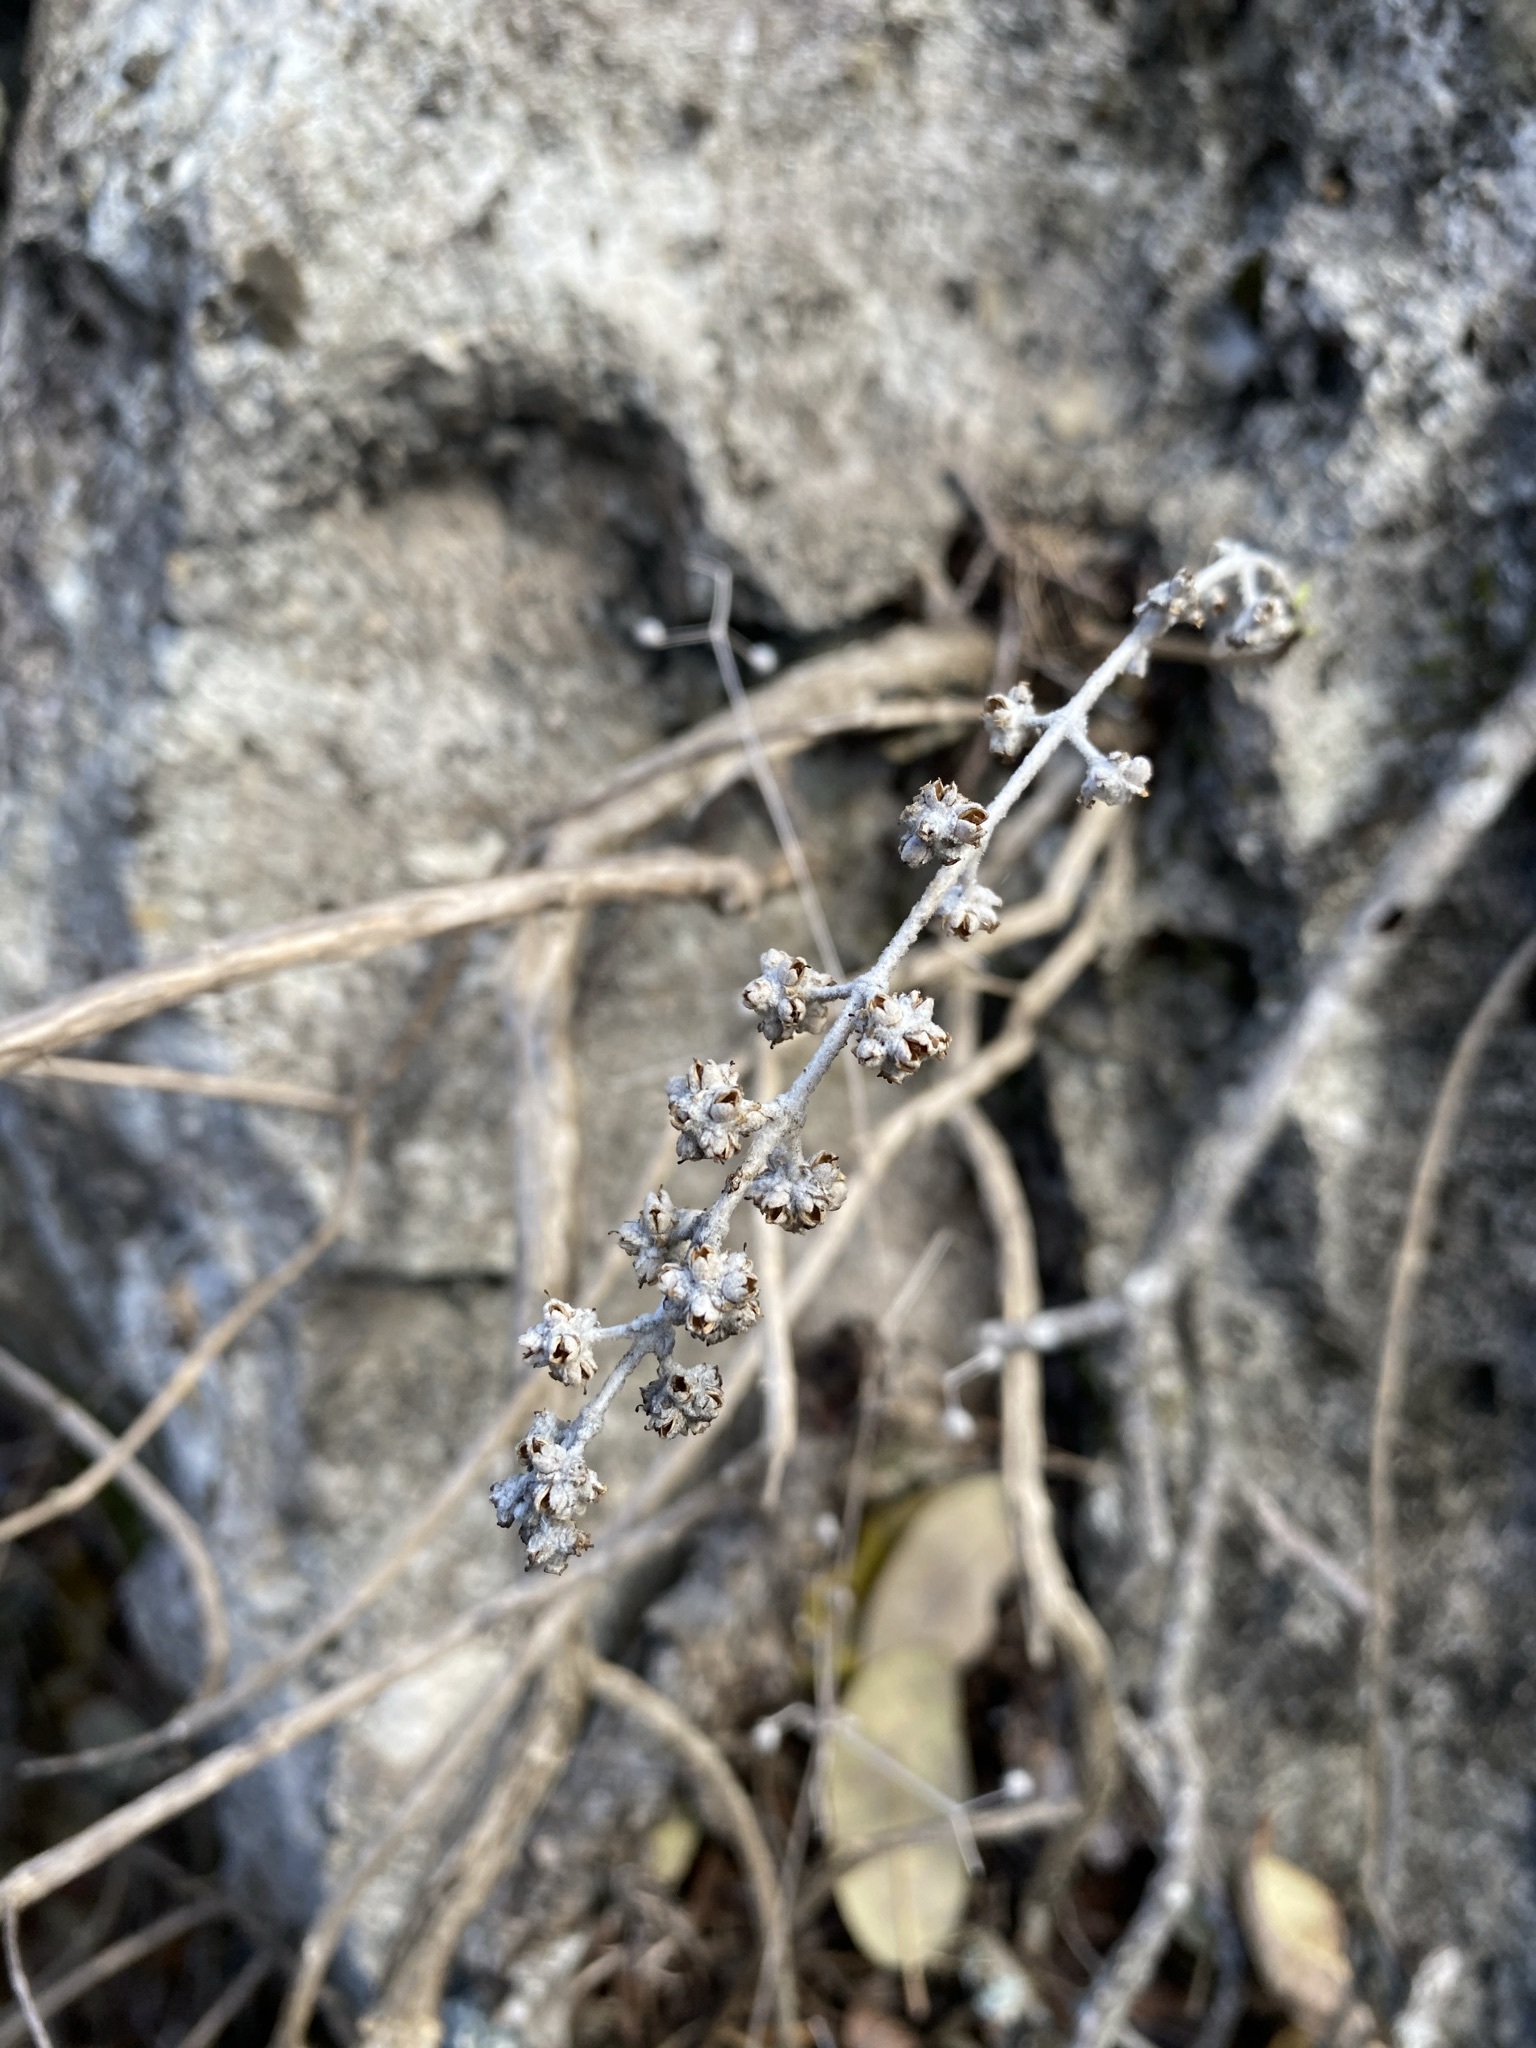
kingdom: Plantae
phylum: Tracheophyta
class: Magnoliopsida
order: Lamiales
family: Scrophulariaceae
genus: Buddleja
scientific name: Buddleja racemosa
